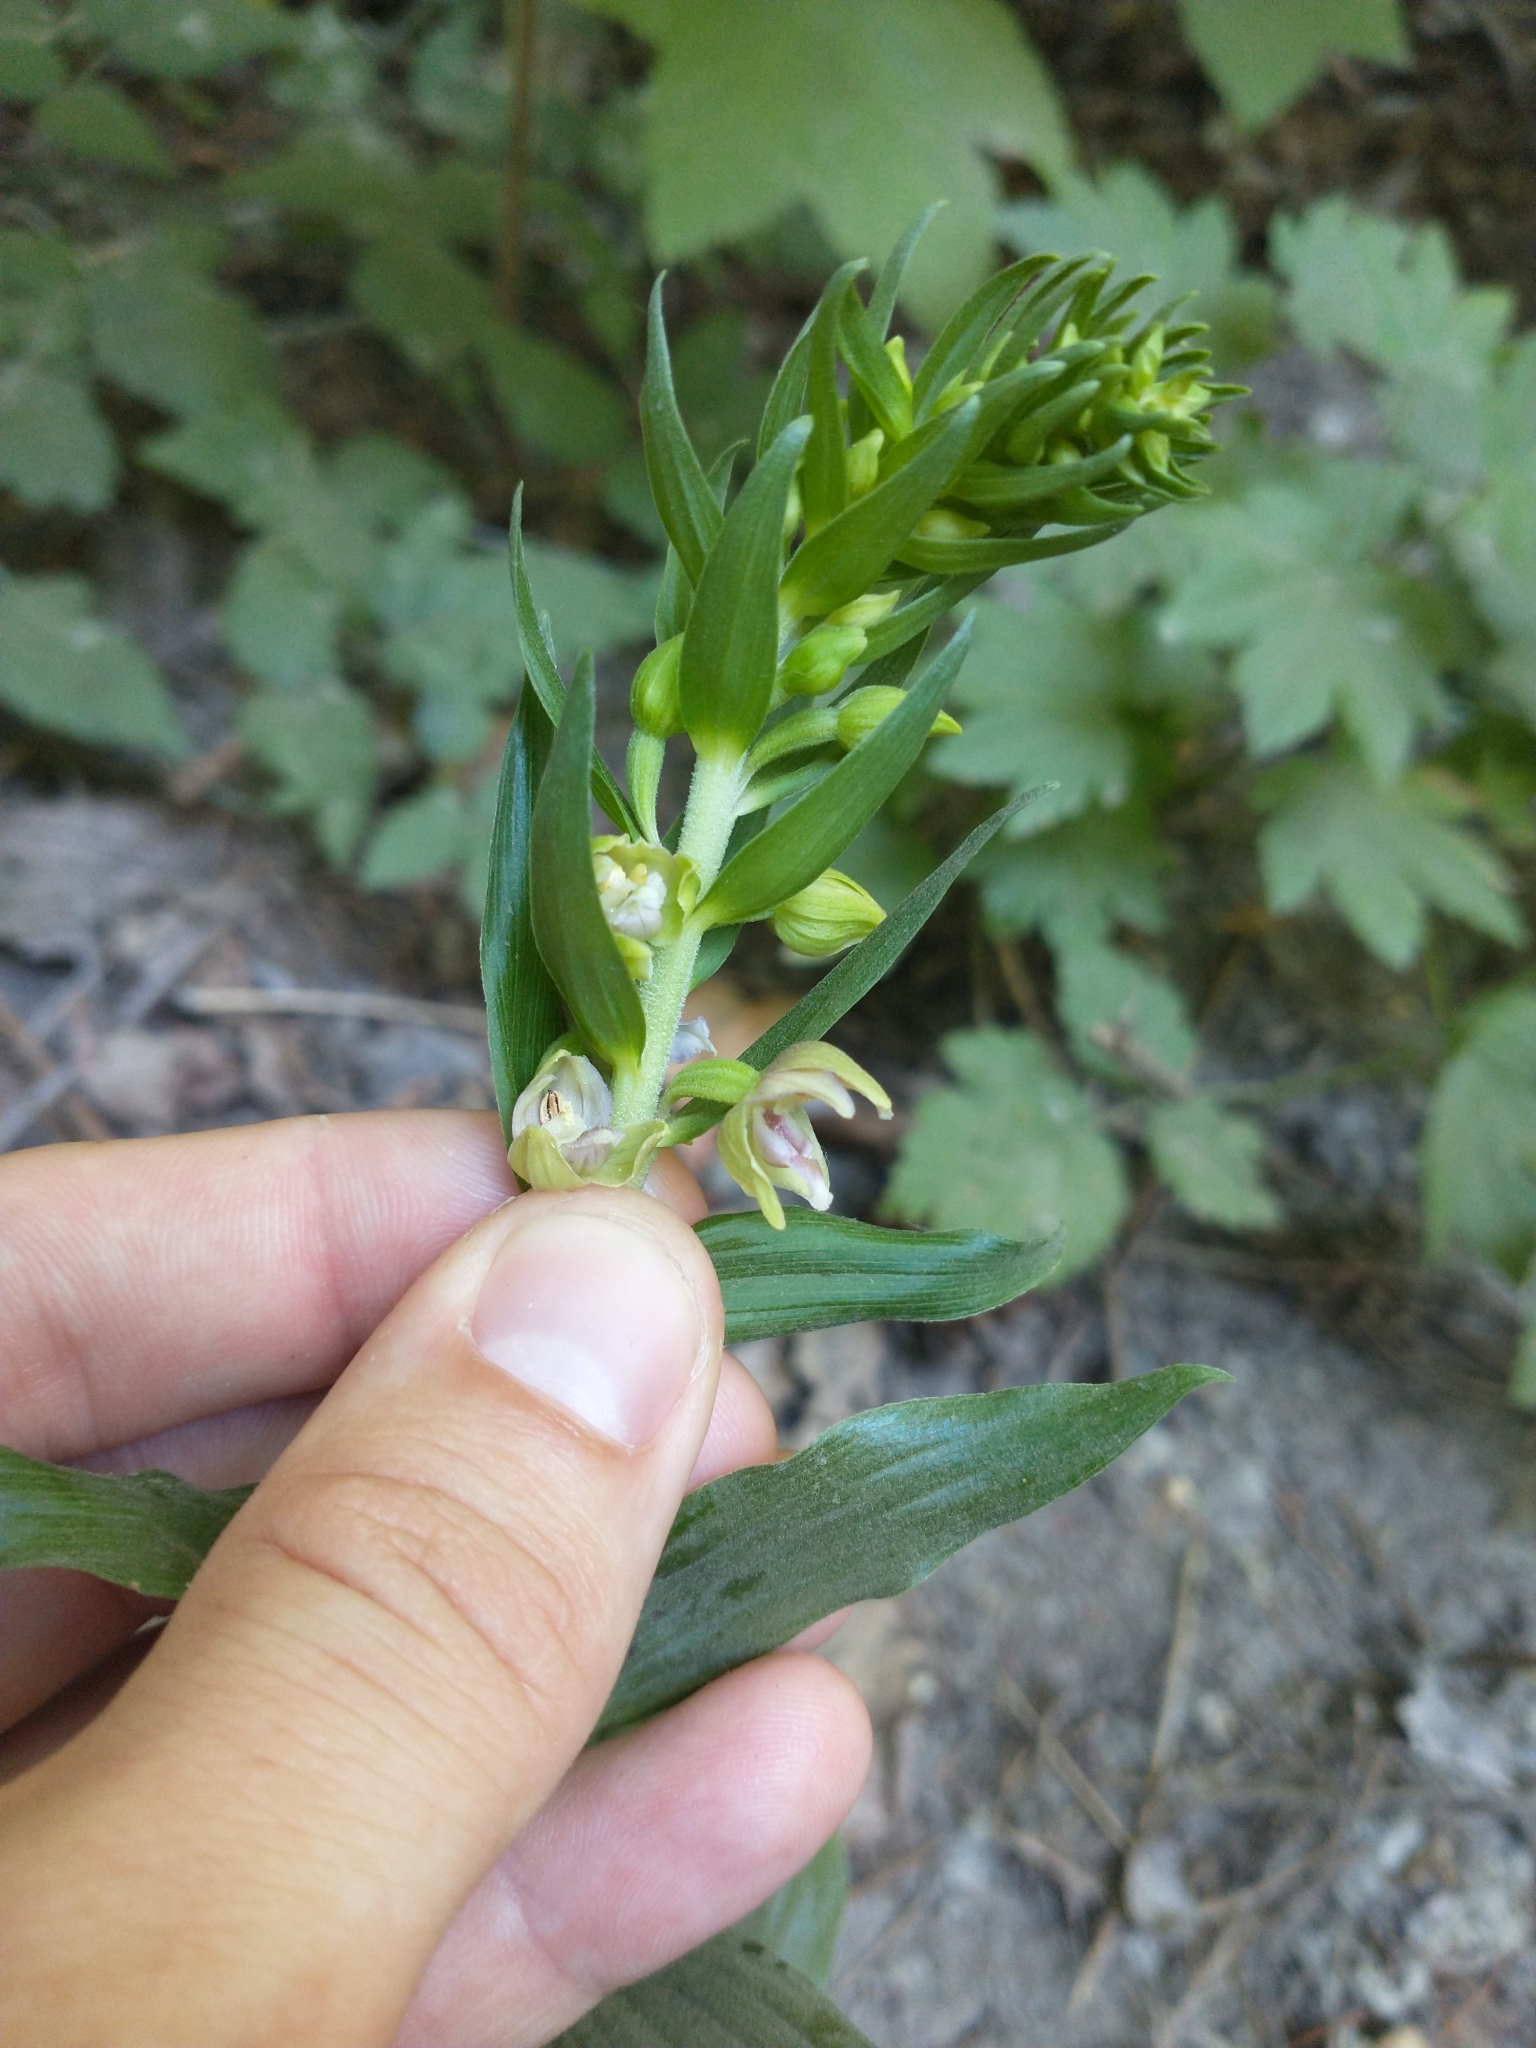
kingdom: Plantae
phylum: Tracheophyta
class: Liliopsida
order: Asparagales
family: Orchidaceae
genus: Epipactis
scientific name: Epipactis helleborine
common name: Broad-leaved helleborine
